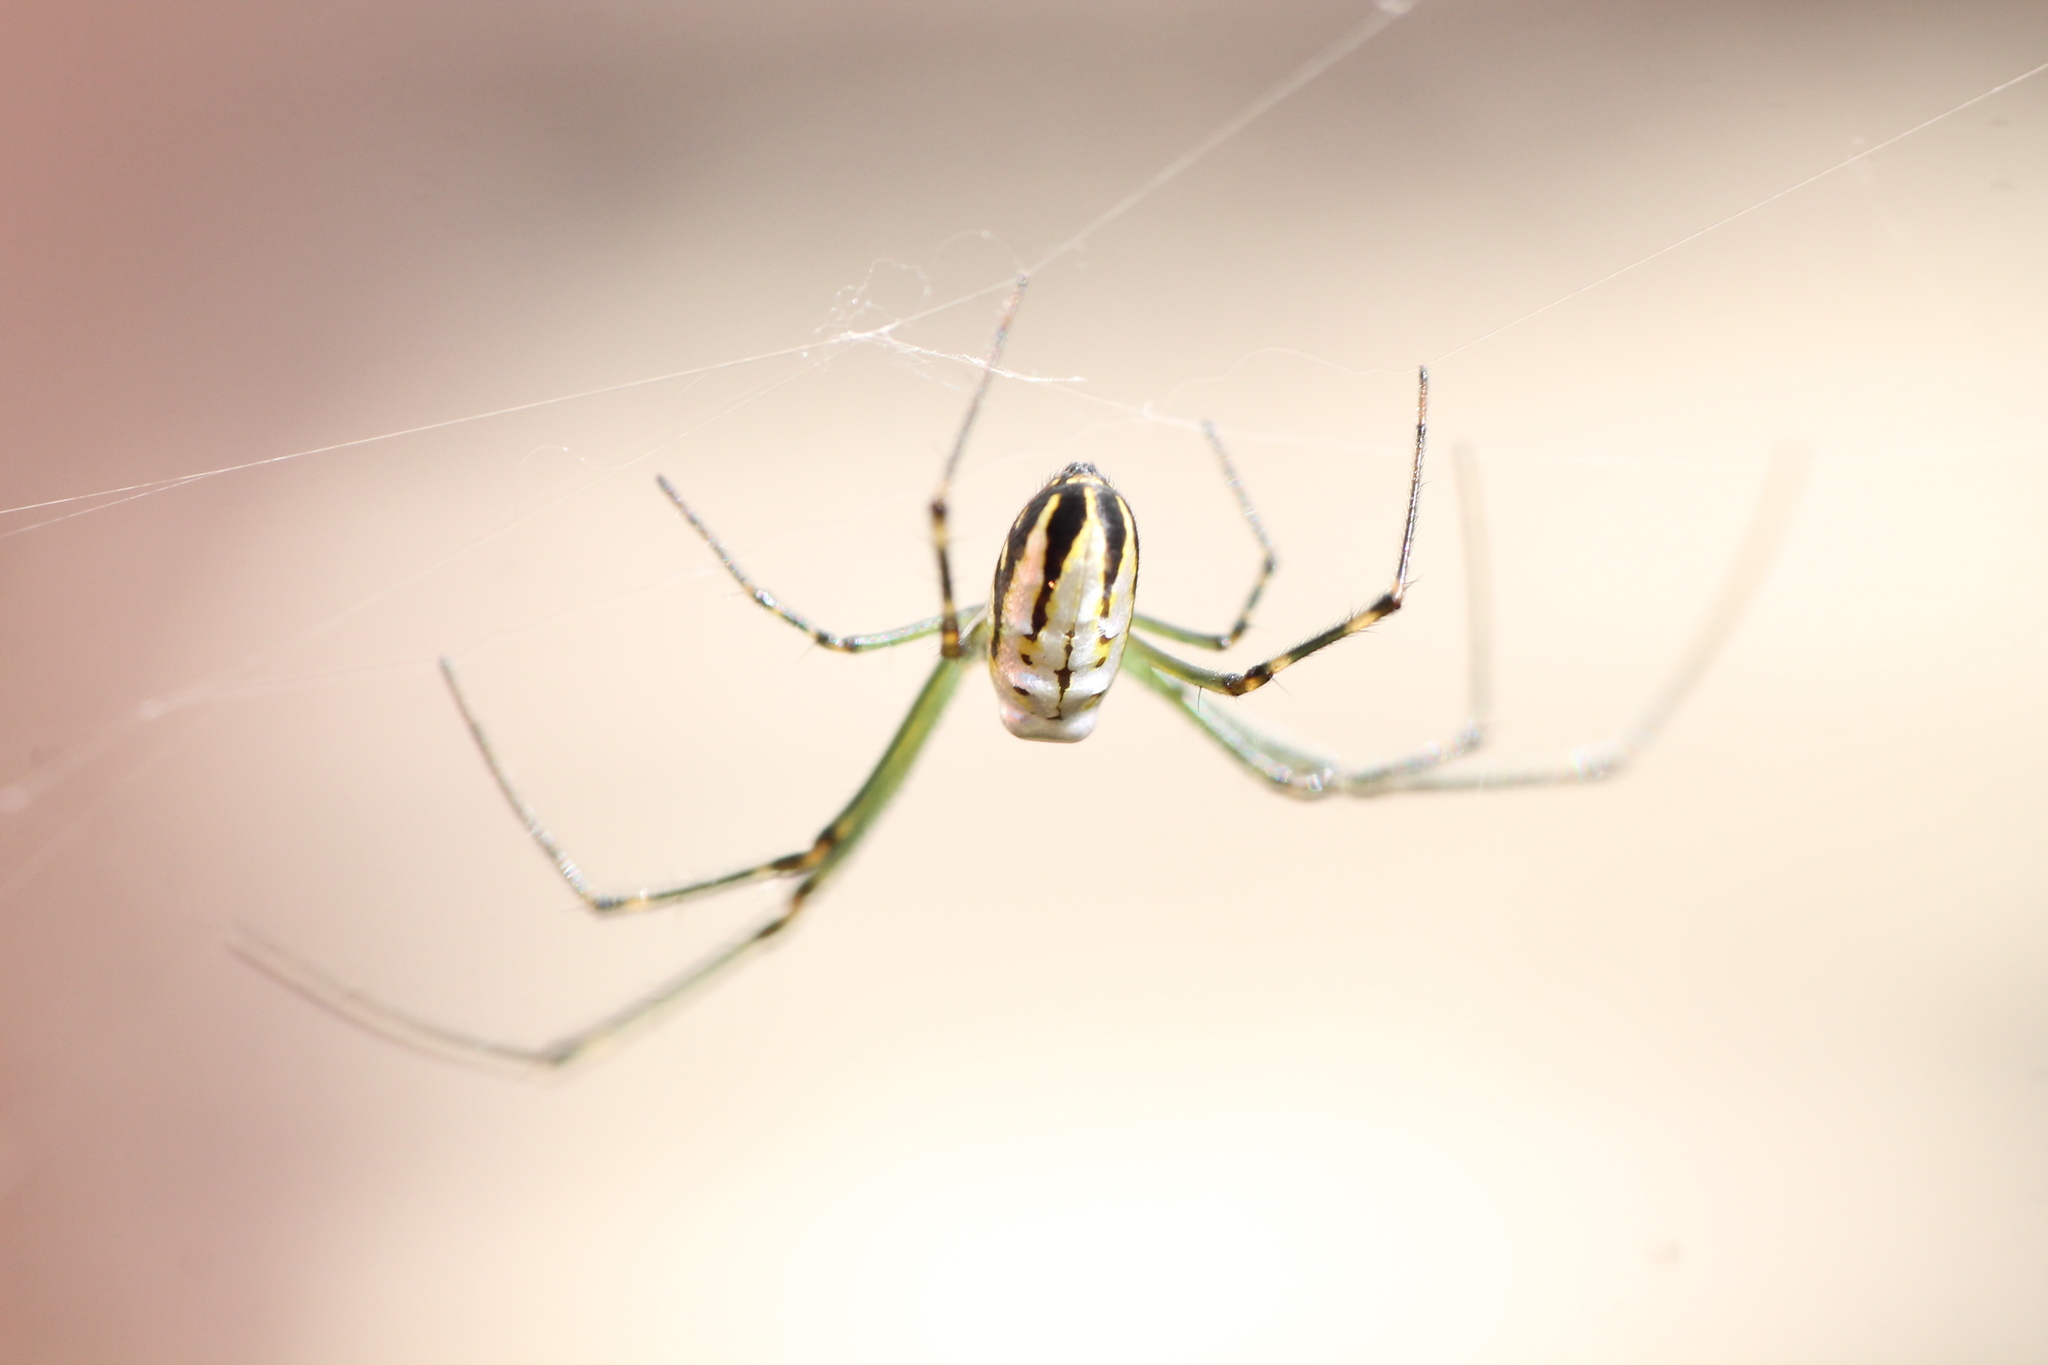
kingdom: Animalia
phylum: Arthropoda
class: Arachnida
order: Araneae
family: Tetragnathidae
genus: Leucauge
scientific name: Leucauge dromedaria
